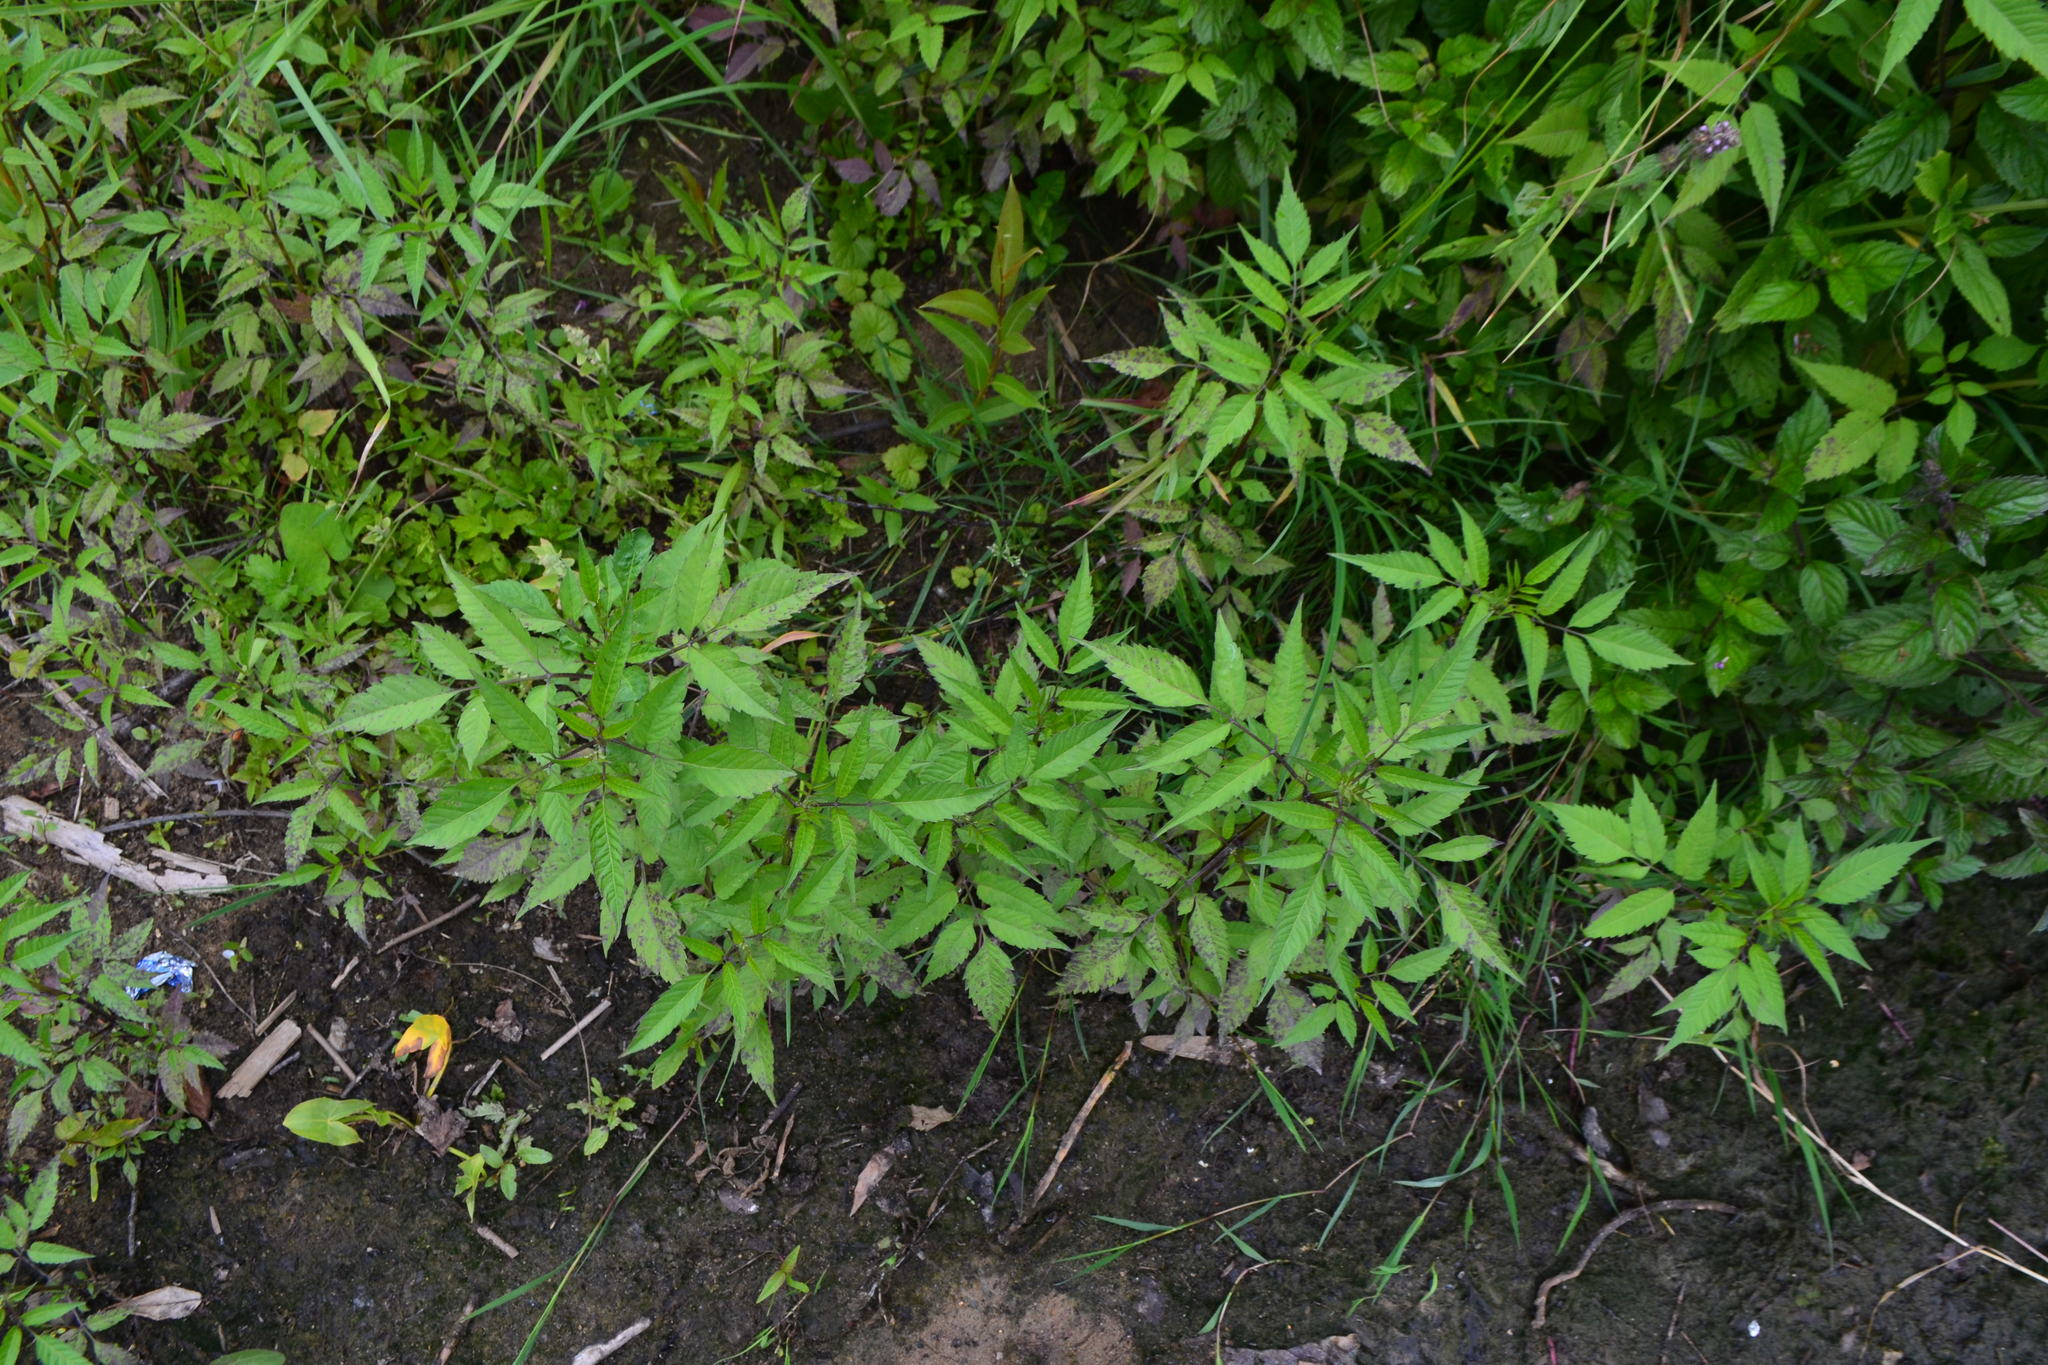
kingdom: Plantae
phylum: Tracheophyta
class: Magnoliopsida
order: Asterales
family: Asteraceae
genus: Bidens
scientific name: Bidens frondosa
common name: Beggarticks
